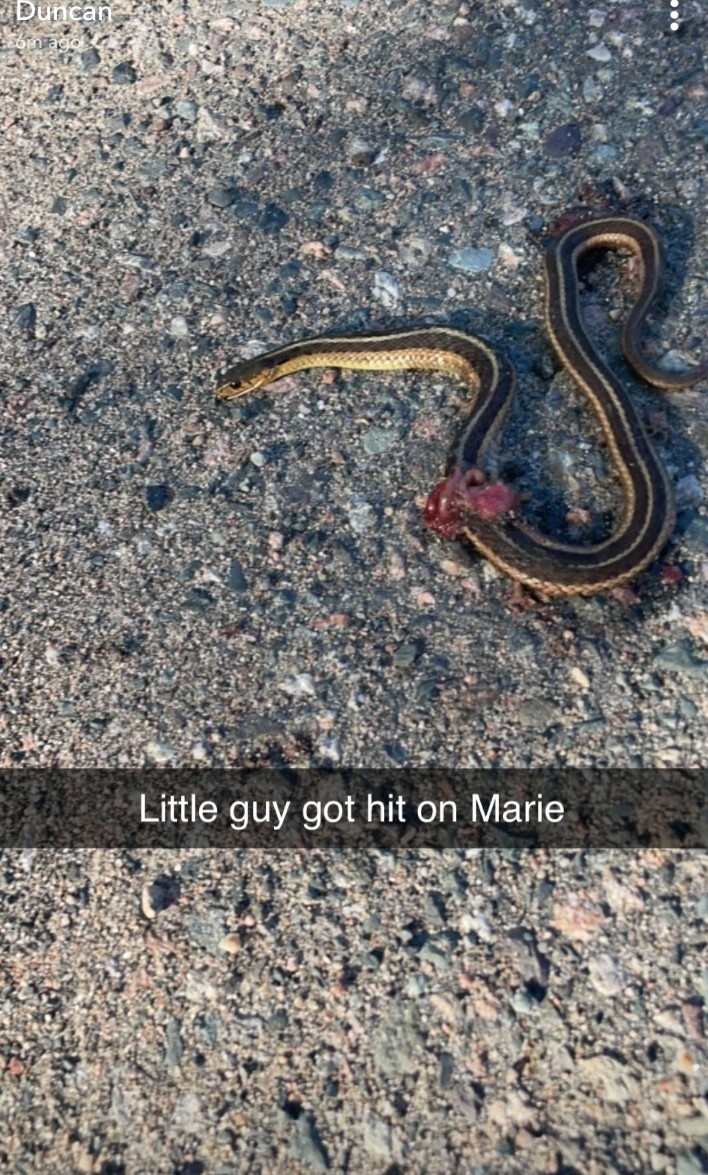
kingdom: Animalia
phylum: Chordata
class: Squamata
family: Colubridae
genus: Thamnophis
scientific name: Thamnophis sirtalis
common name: Common garter snake
